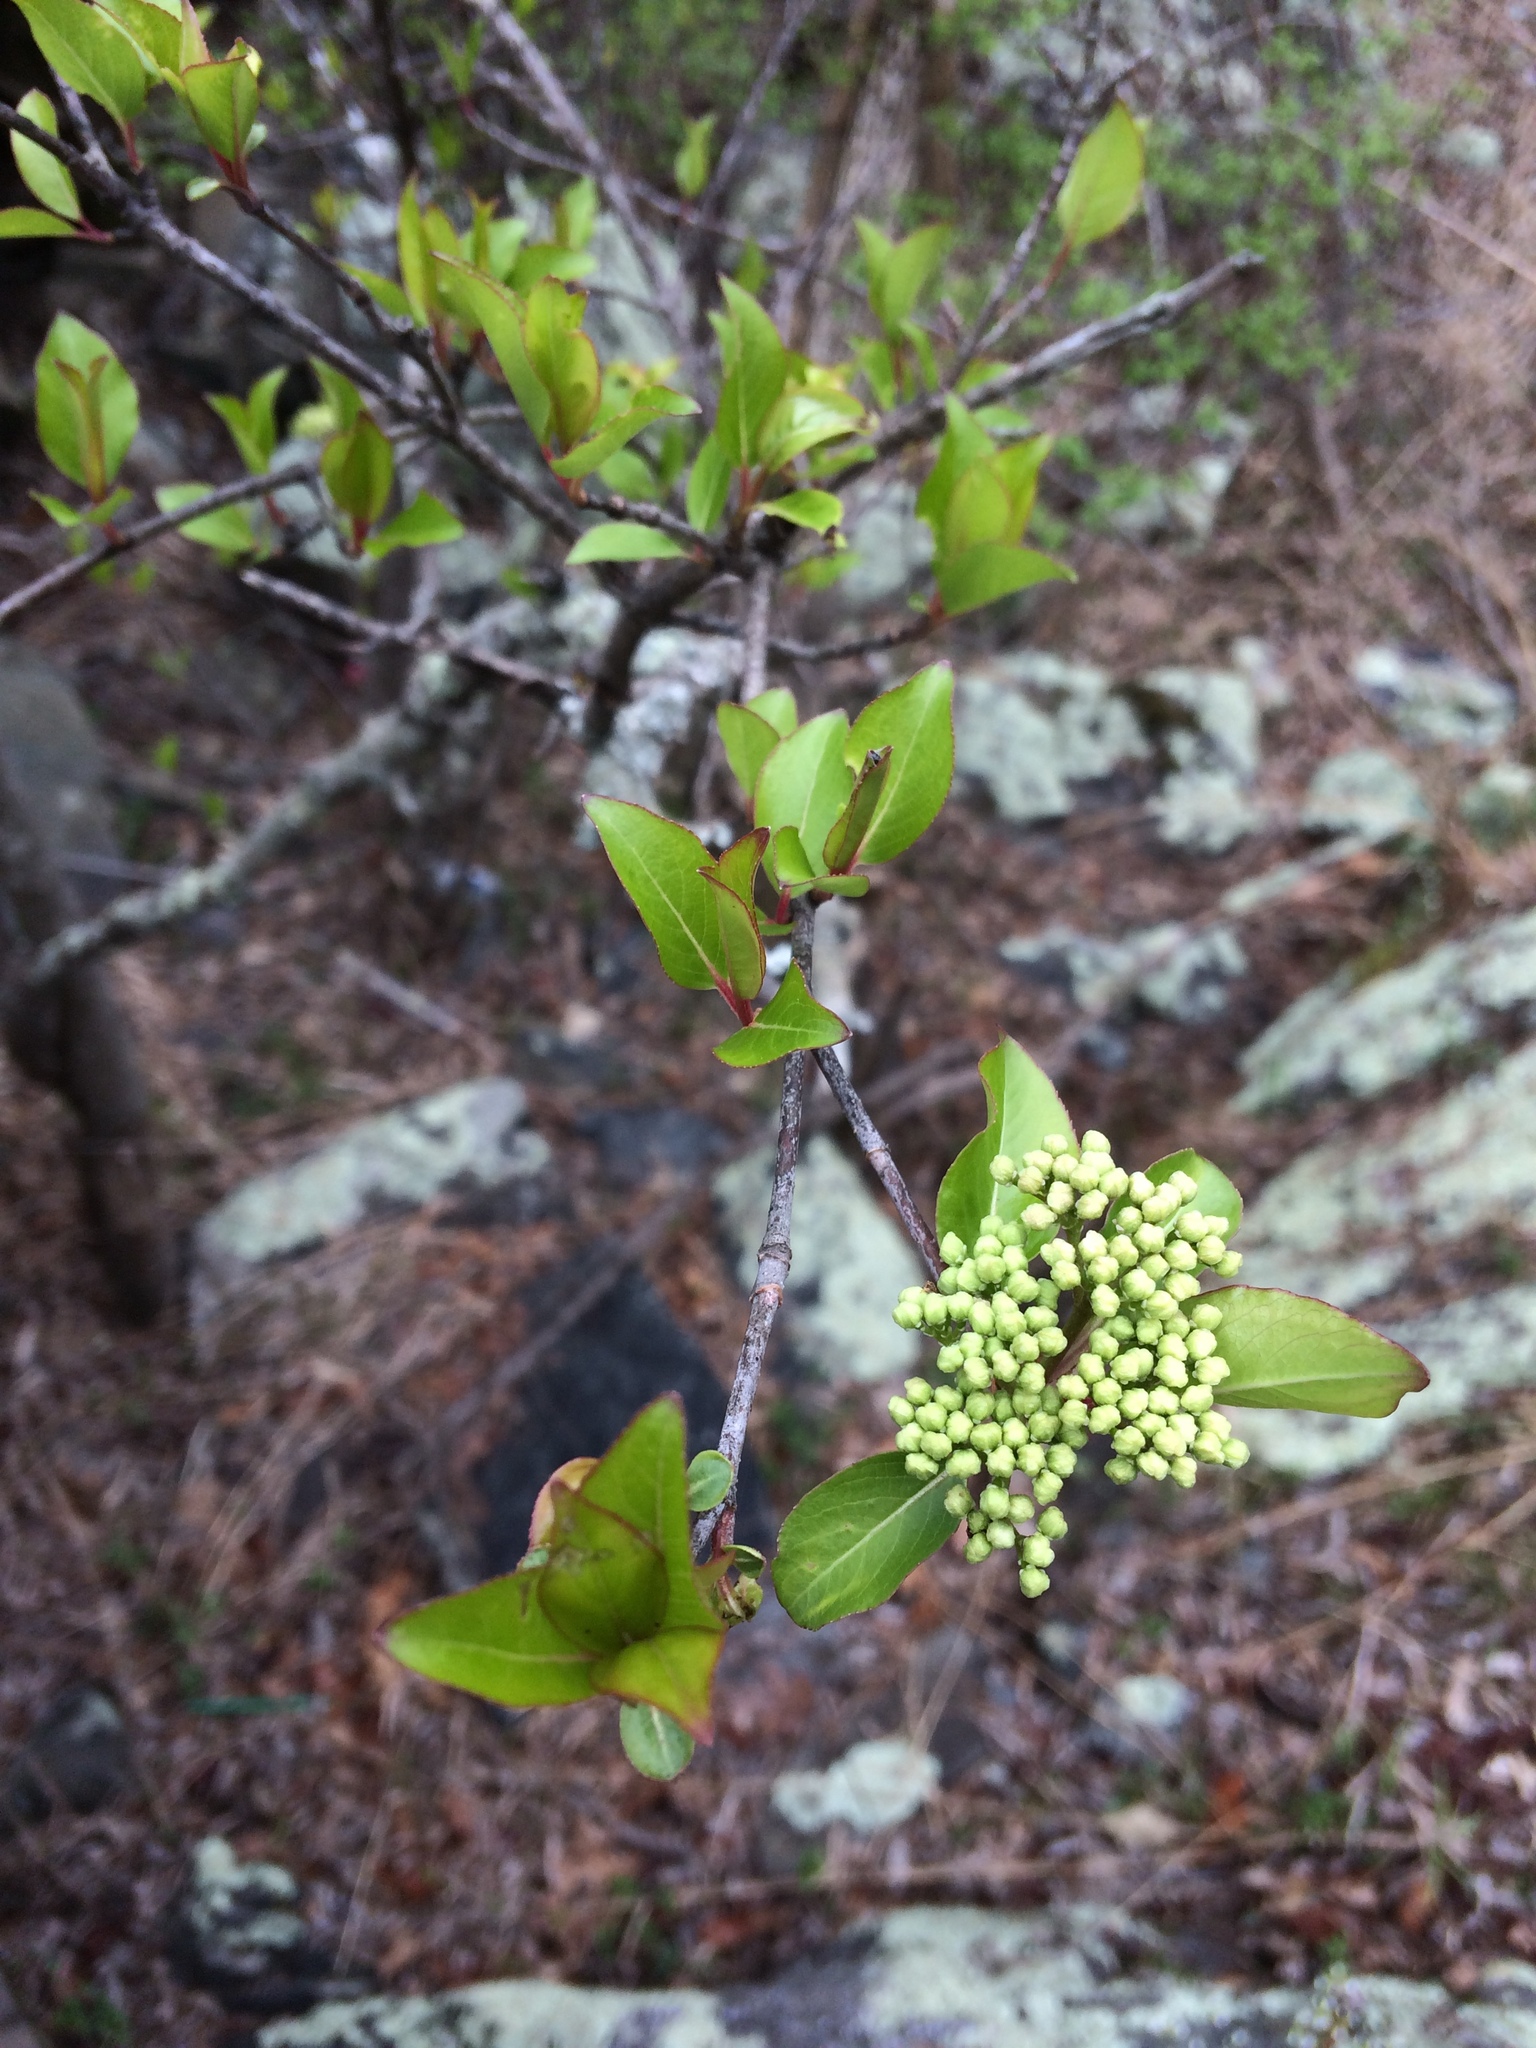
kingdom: Plantae
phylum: Tracheophyta
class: Magnoliopsida
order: Dipsacales
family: Viburnaceae
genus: Viburnum
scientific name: Viburnum prunifolium
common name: Black haw
